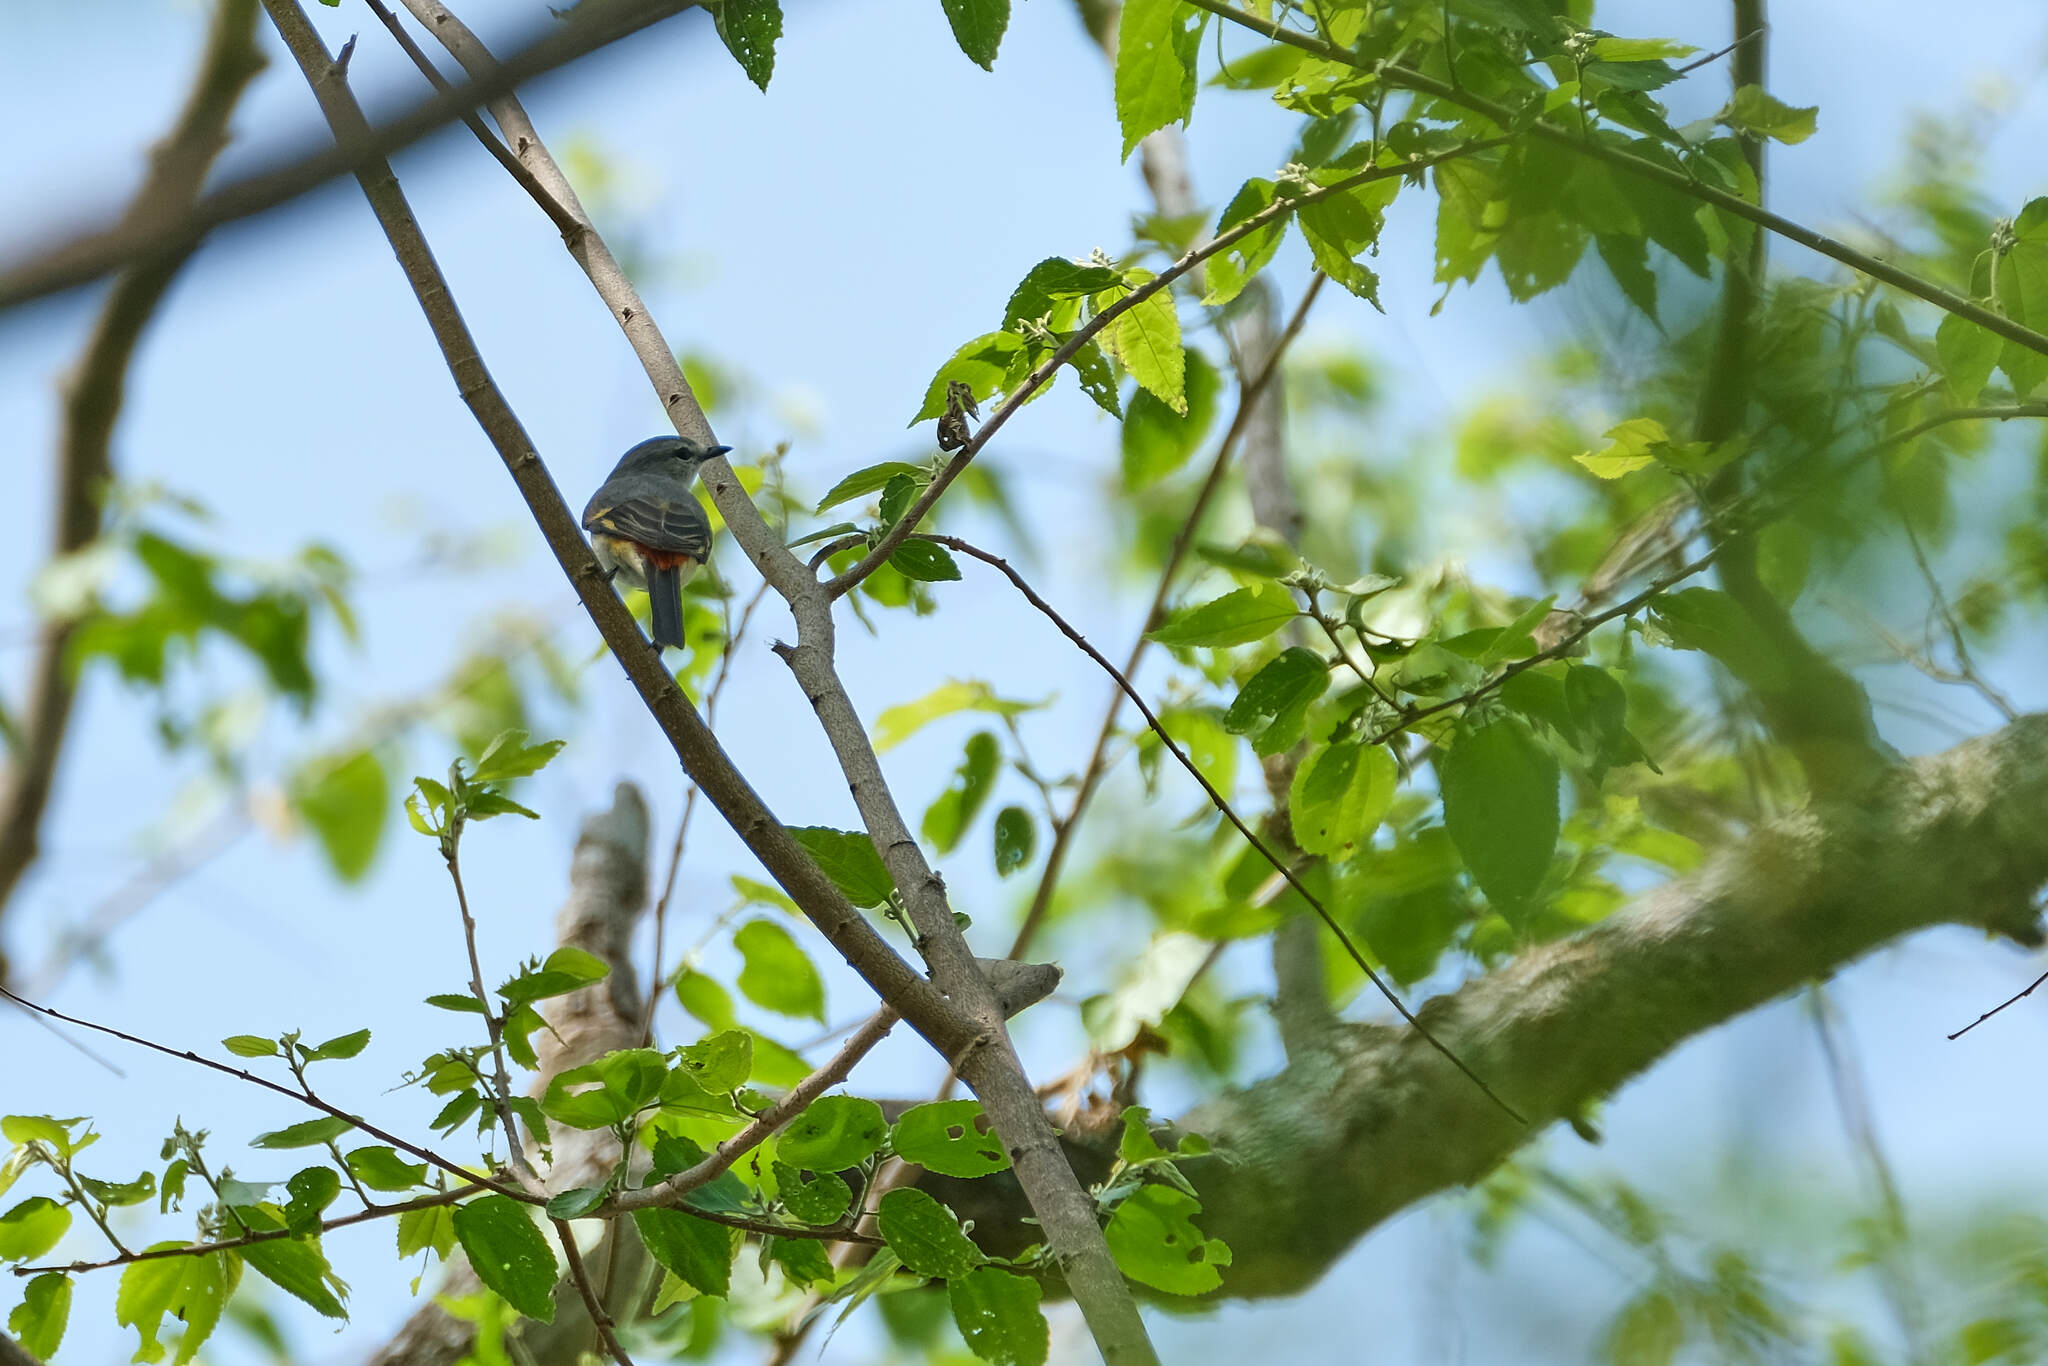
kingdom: Animalia
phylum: Chordata
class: Aves
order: Passeriformes
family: Campephagidae
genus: Pericrocotus
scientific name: Pericrocotus cinnamomeus
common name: Small minivet
